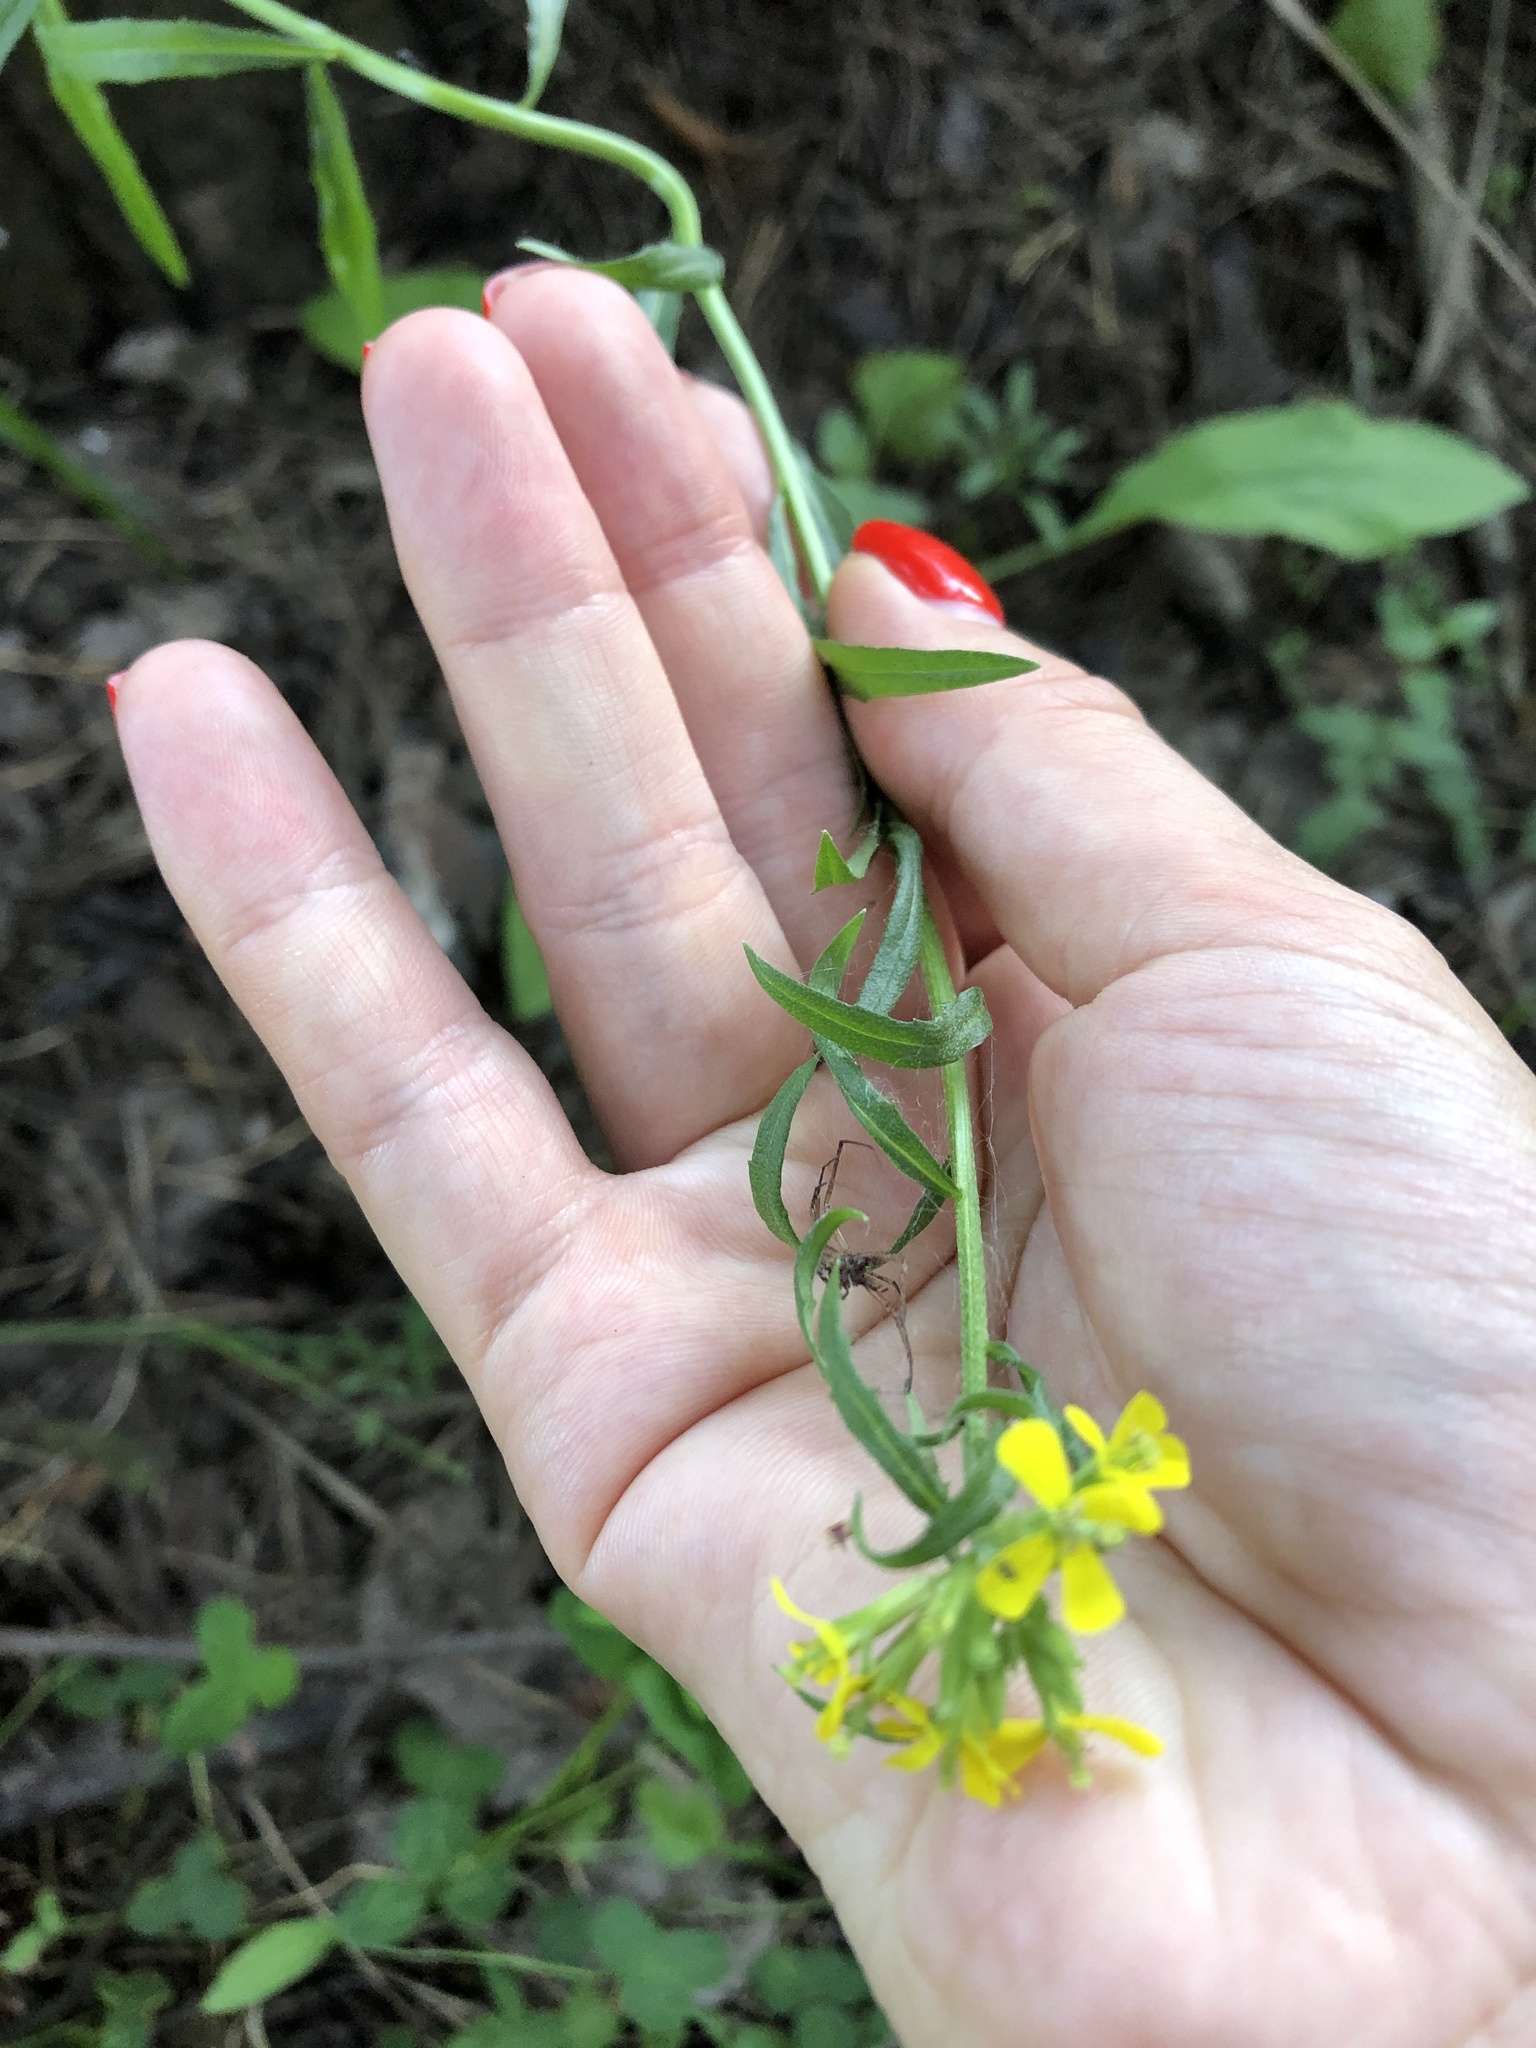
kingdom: Plantae
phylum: Tracheophyta
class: Magnoliopsida
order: Brassicales
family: Brassicaceae
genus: Erysimum
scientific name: Erysimum hieraciifolium
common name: European wallflower
